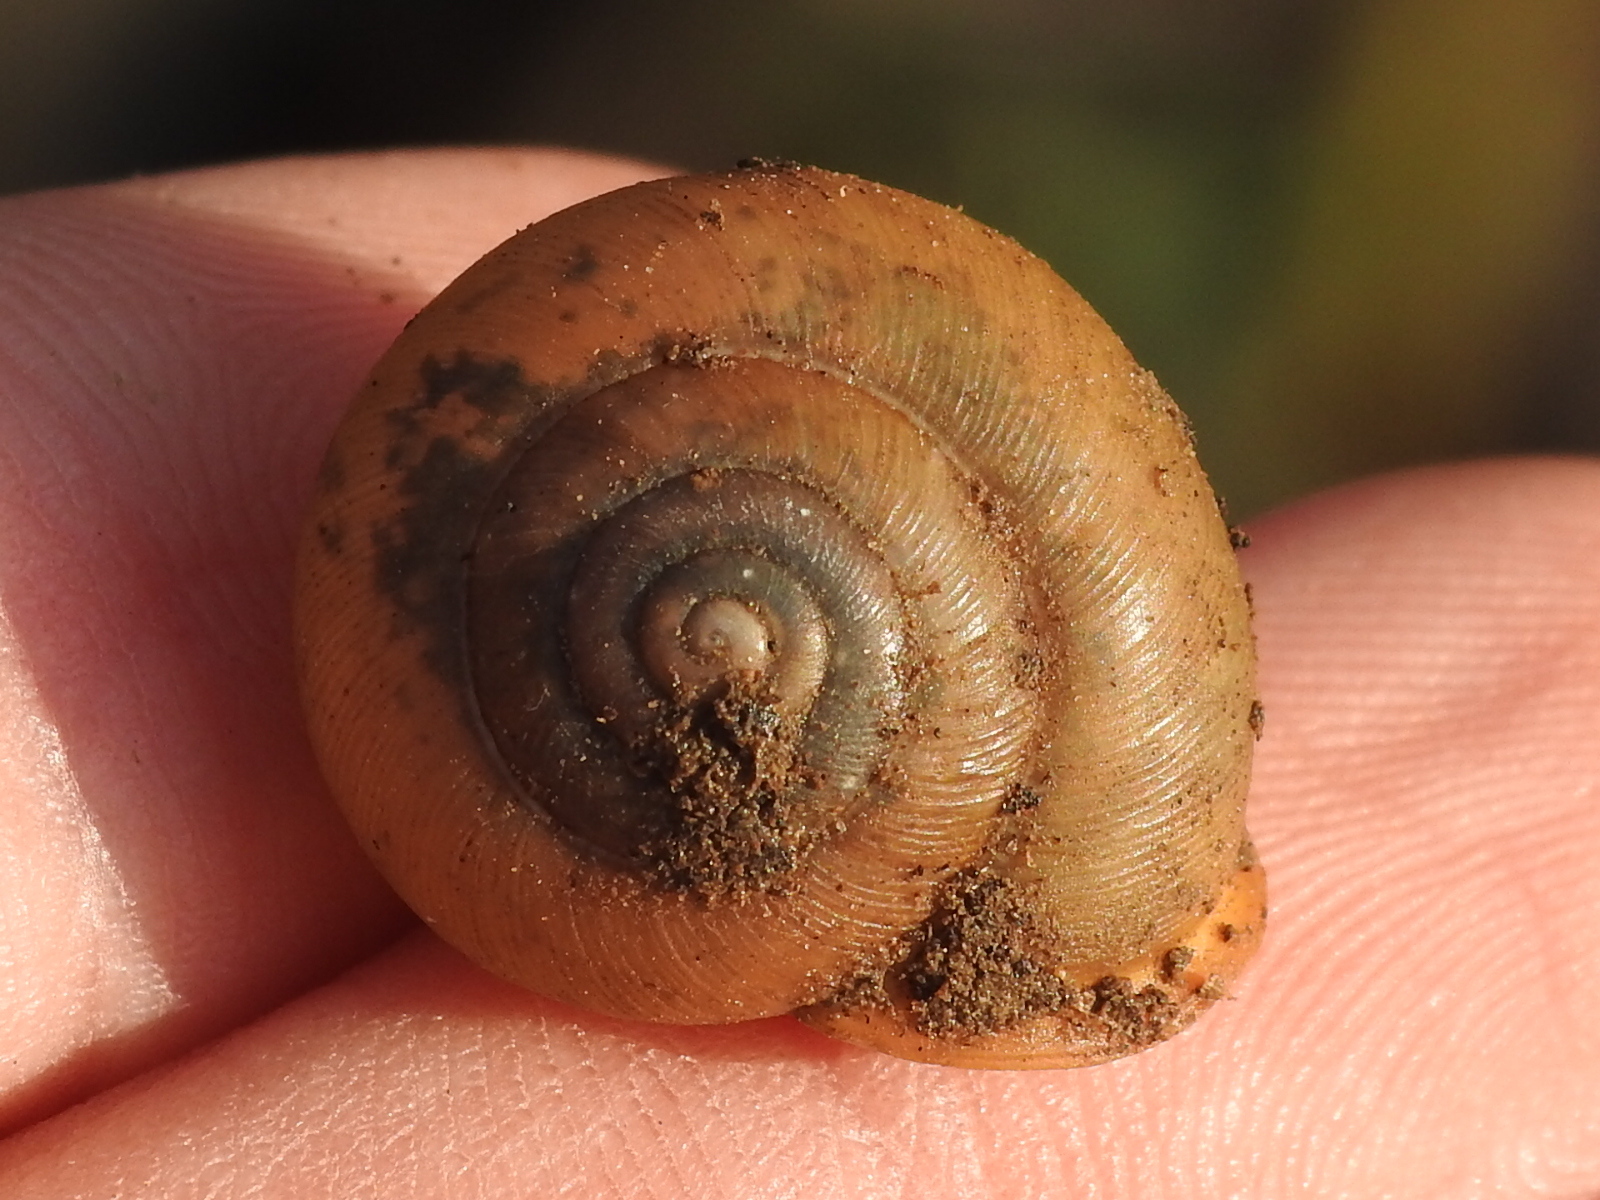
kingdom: Animalia
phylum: Mollusca
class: Gastropoda
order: Stylommatophora
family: Polygyridae
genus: Mesodon
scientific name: Mesodon thyroidus
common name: White-lip globe
